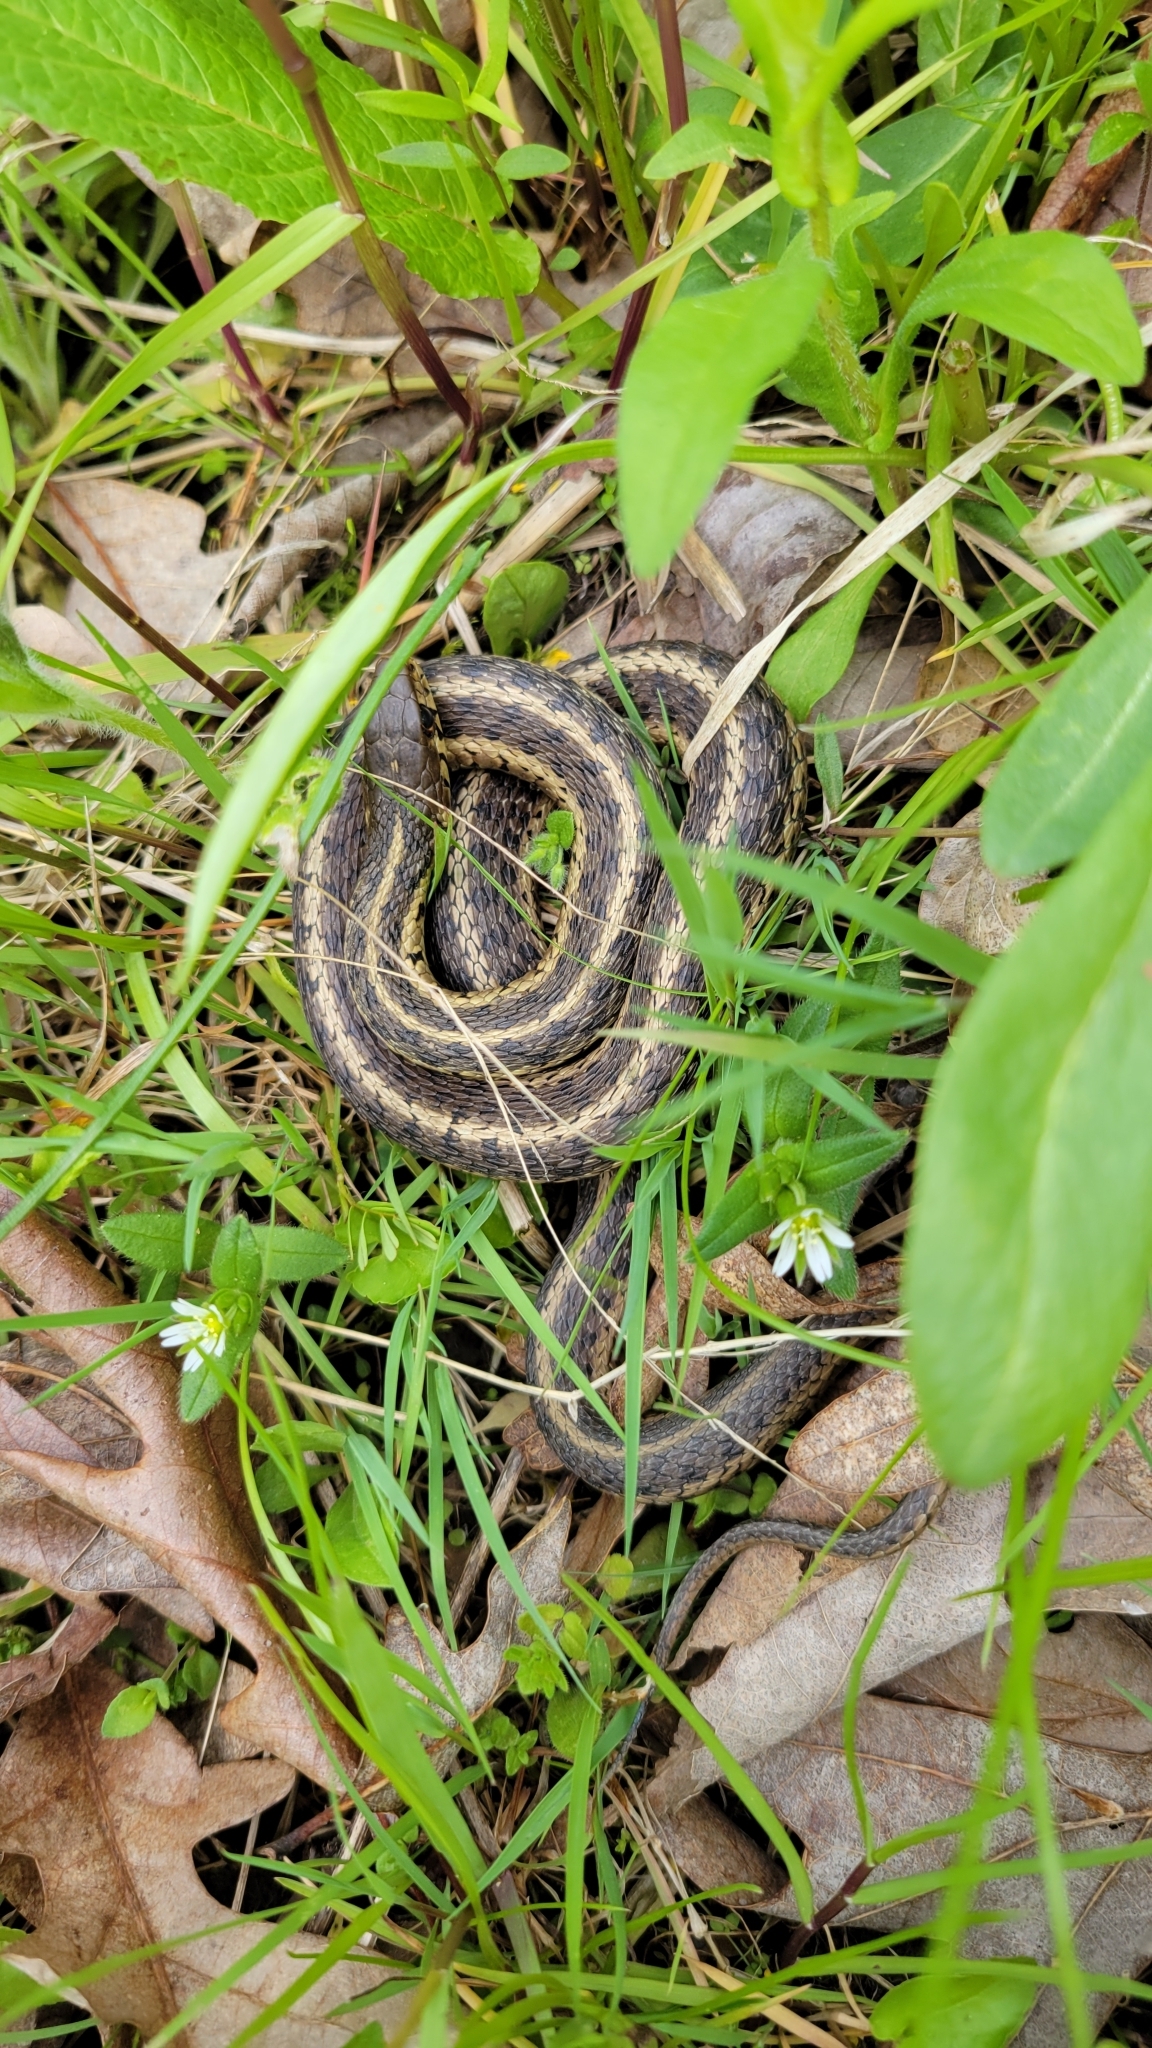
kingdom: Animalia
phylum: Chordata
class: Squamata
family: Colubridae
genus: Thamnophis
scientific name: Thamnophis sirtalis
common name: Common garter snake
